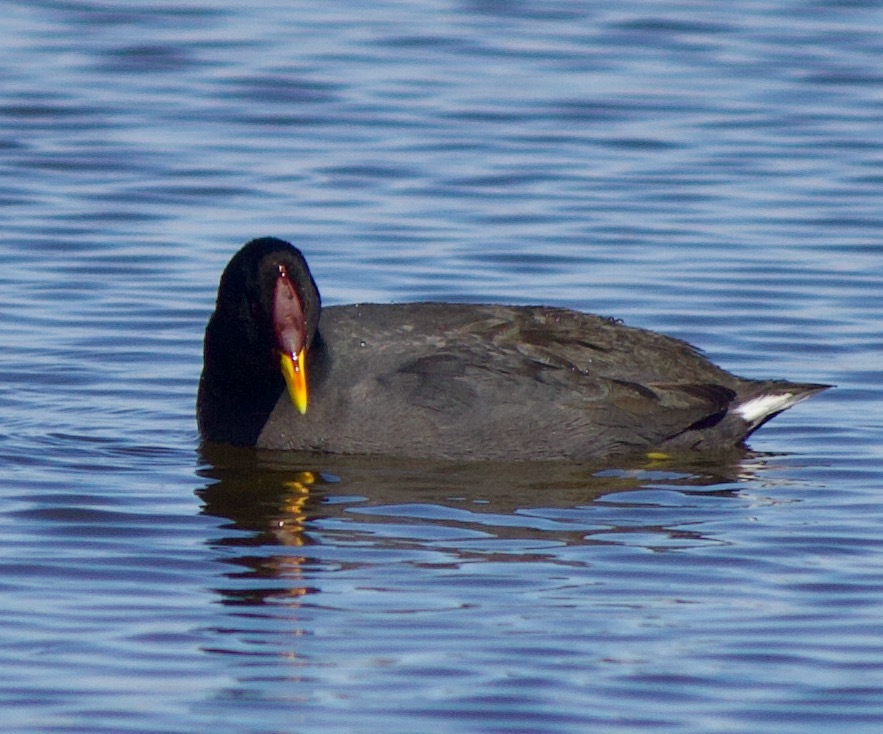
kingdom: Animalia
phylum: Chordata
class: Aves
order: Gruiformes
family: Rallidae
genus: Fulica
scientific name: Fulica rufifrons
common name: Red-fronted coot
